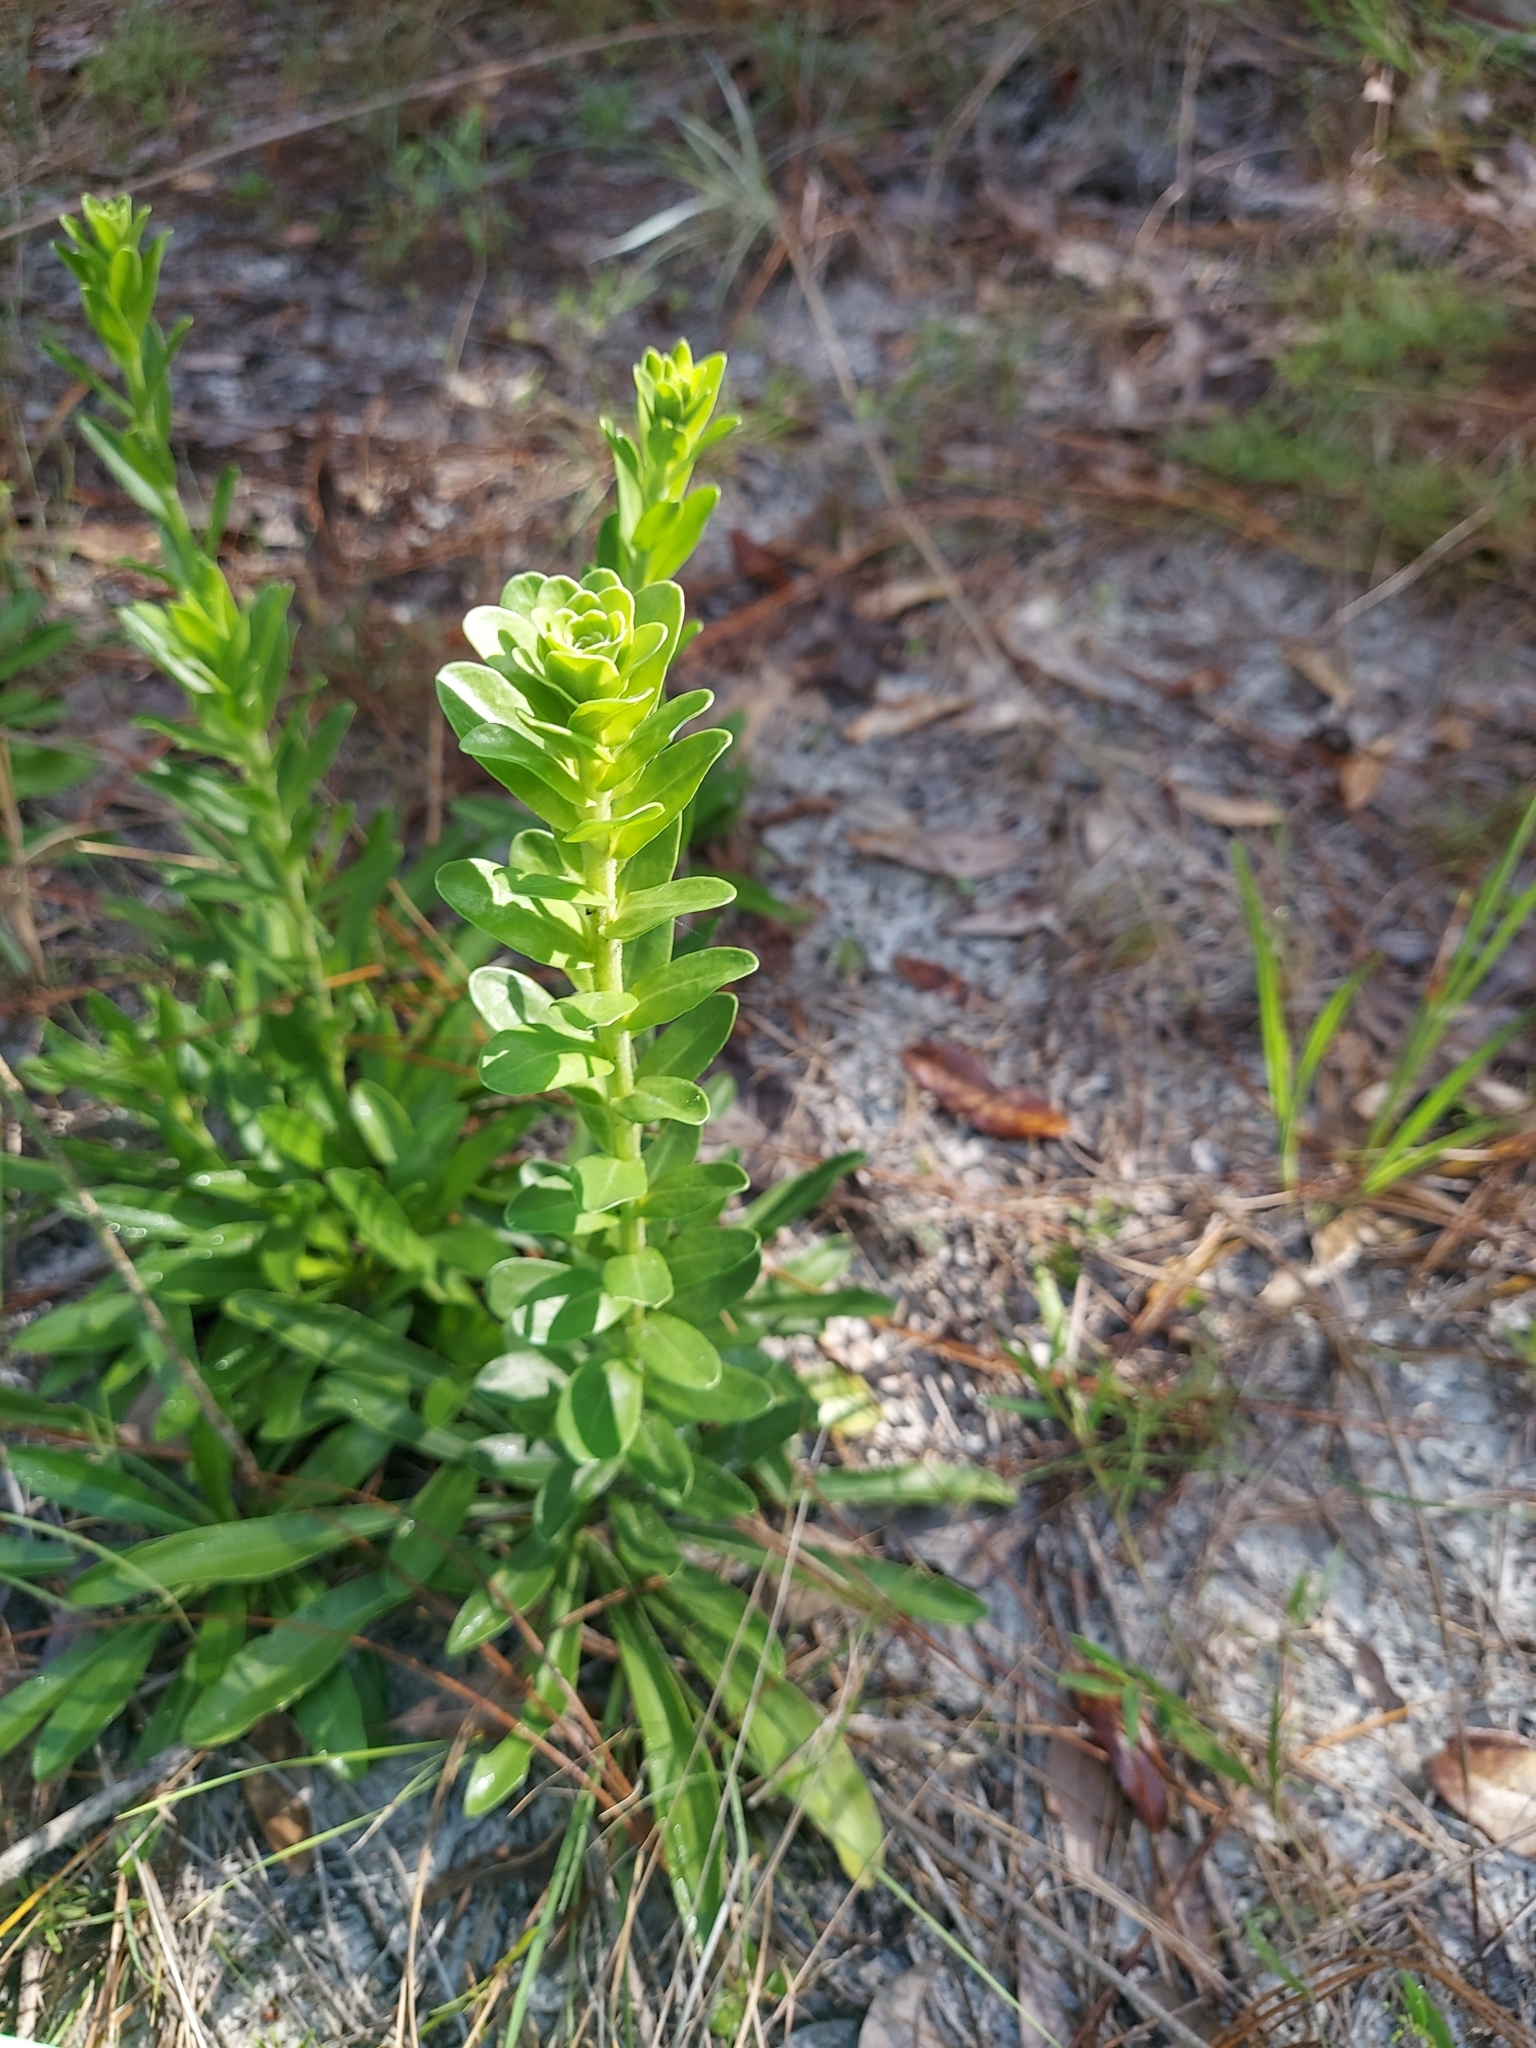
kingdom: Plantae
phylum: Tracheophyta
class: Magnoliopsida
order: Asterales
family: Asteraceae
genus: Carphephorus
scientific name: Carphephorus corymbosus
